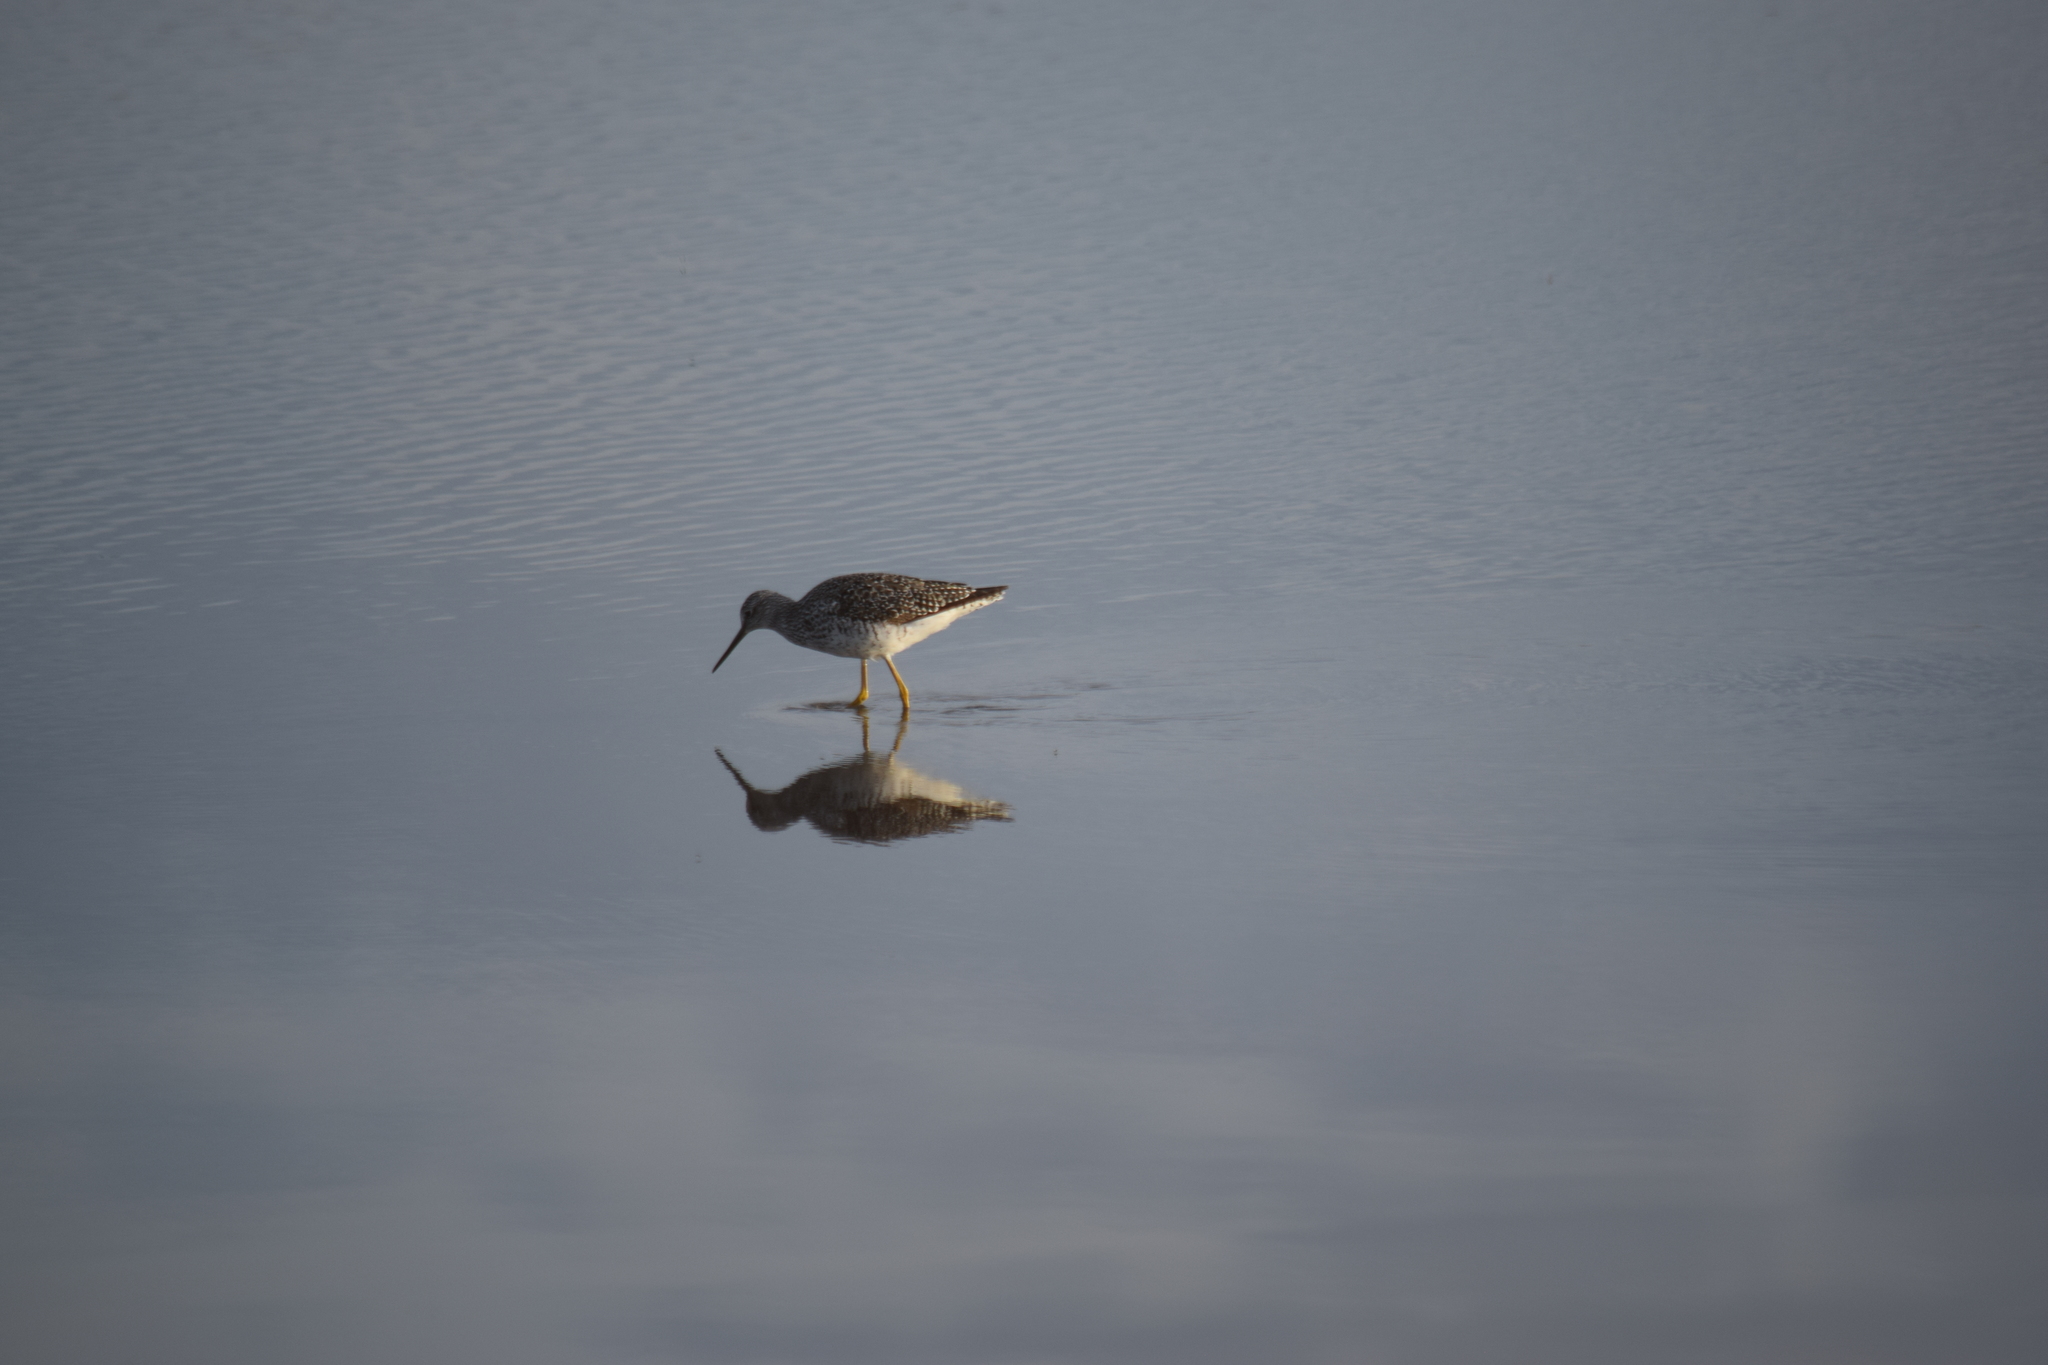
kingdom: Animalia
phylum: Chordata
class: Aves
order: Charadriiformes
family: Scolopacidae
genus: Tringa
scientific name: Tringa melanoleuca
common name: Greater yellowlegs
